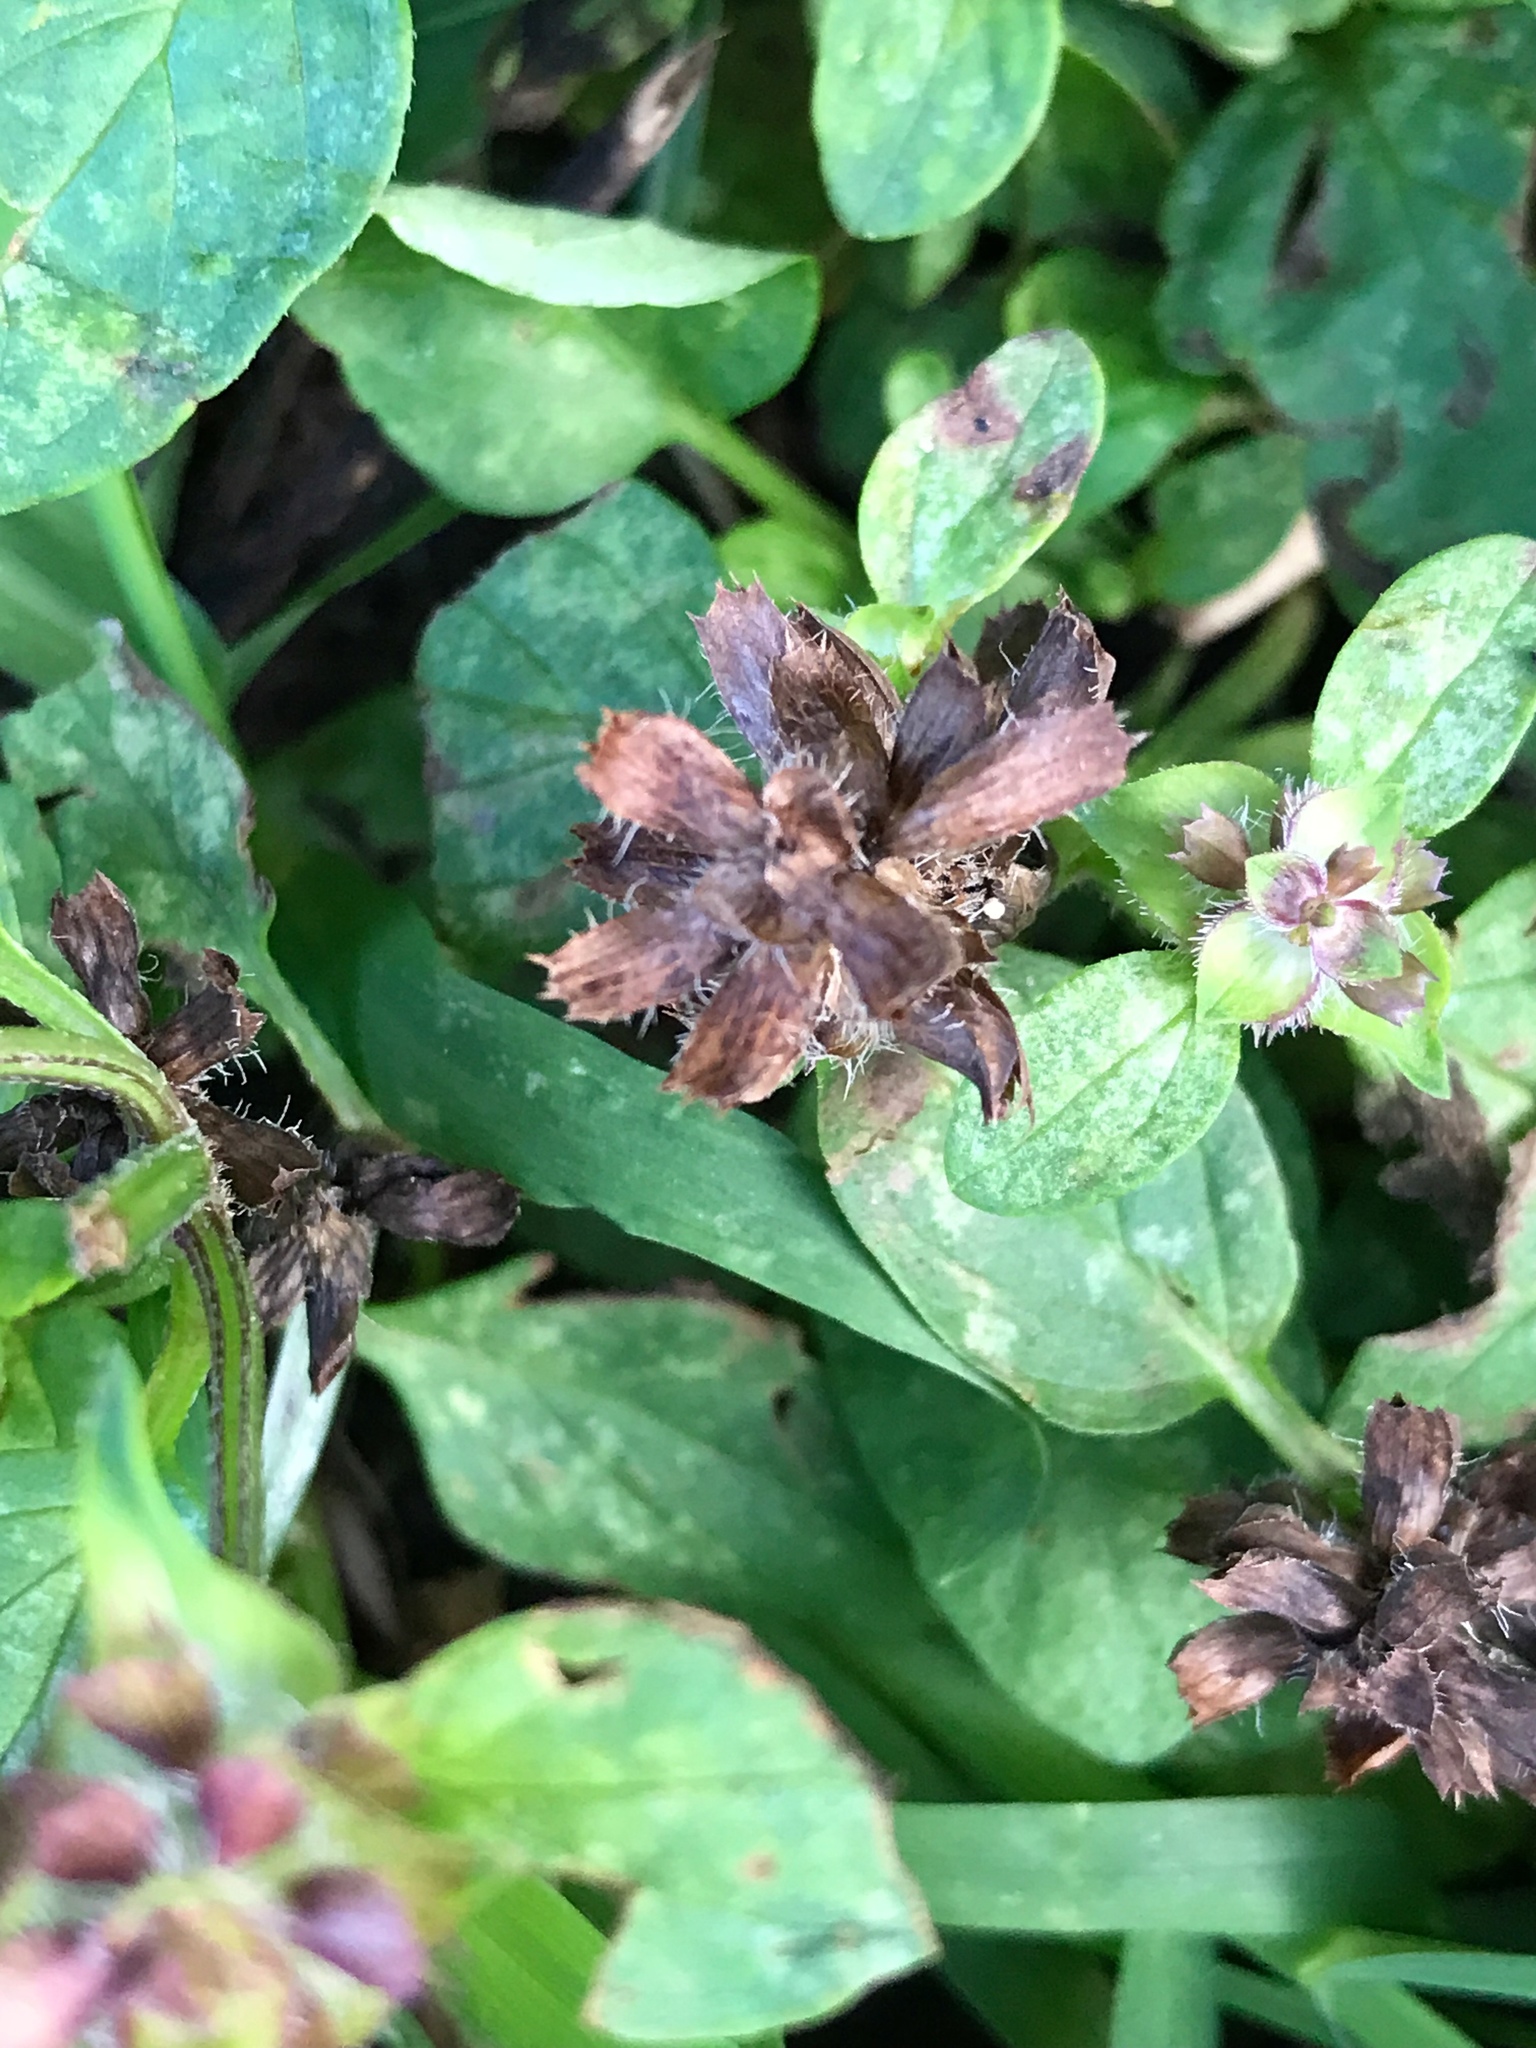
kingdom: Plantae
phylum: Tracheophyta
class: Magnoliopsida
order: Lamiales
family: Lamiaceae
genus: Prunella
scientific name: Prunella vulgaris
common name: Heal-all
